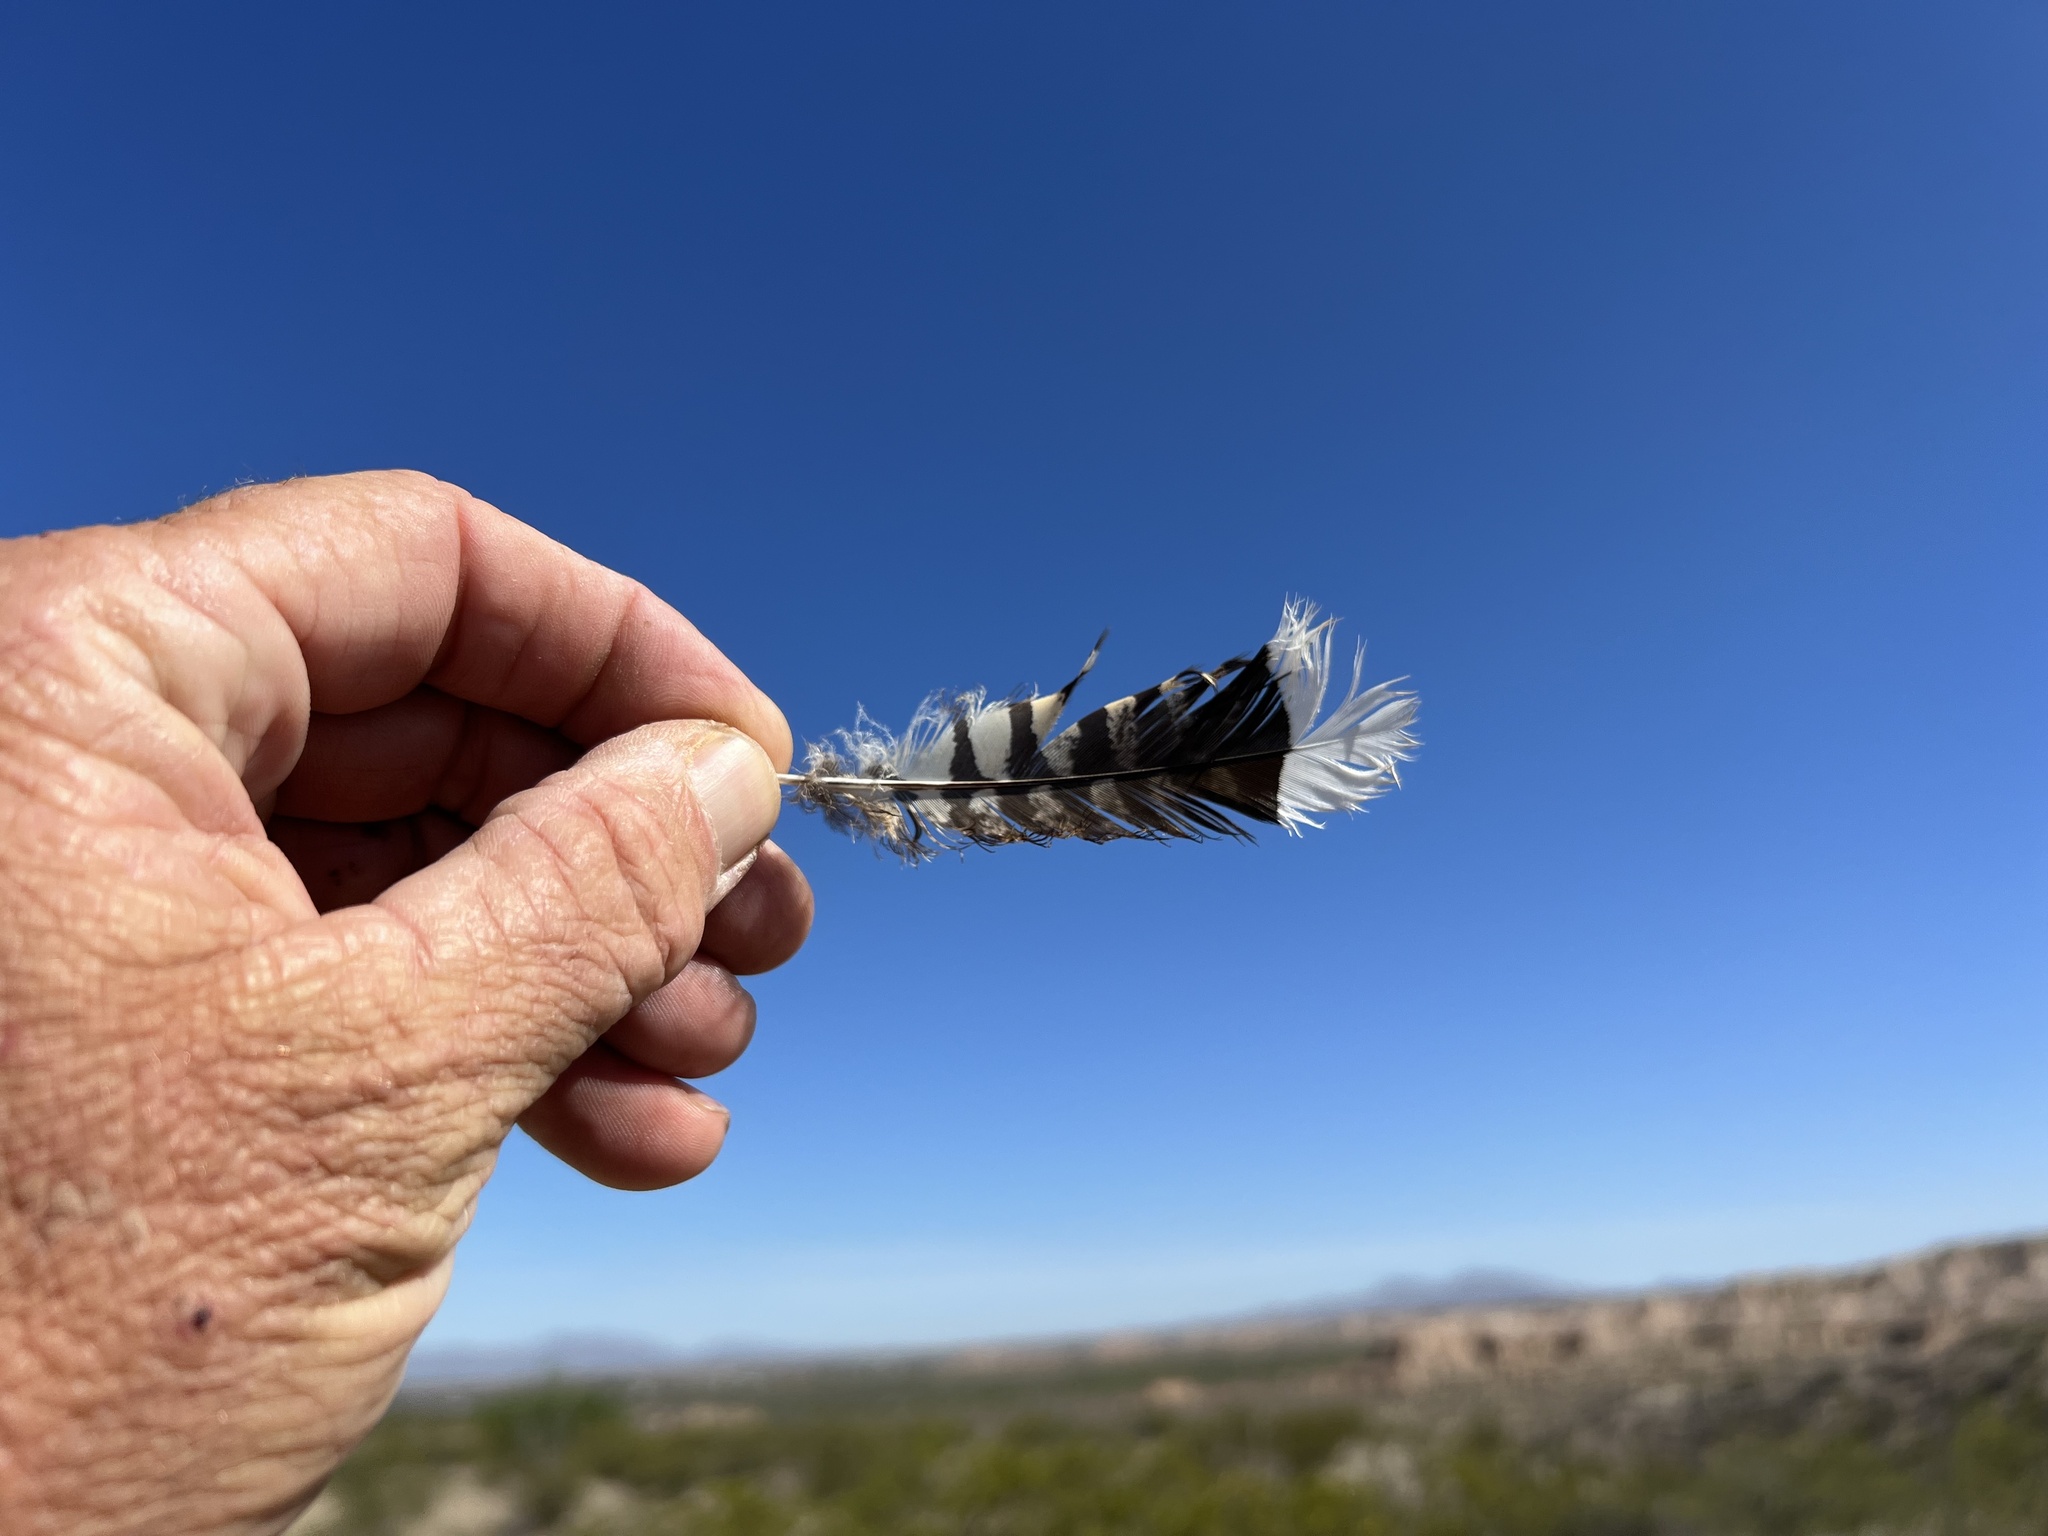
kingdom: Animalia
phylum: Chordata
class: Aves
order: Caprimulgiformes
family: Caprimulgidae
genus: Phalaenoptilus
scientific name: Phalaenoptilus nuttallii
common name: Common poorwill
